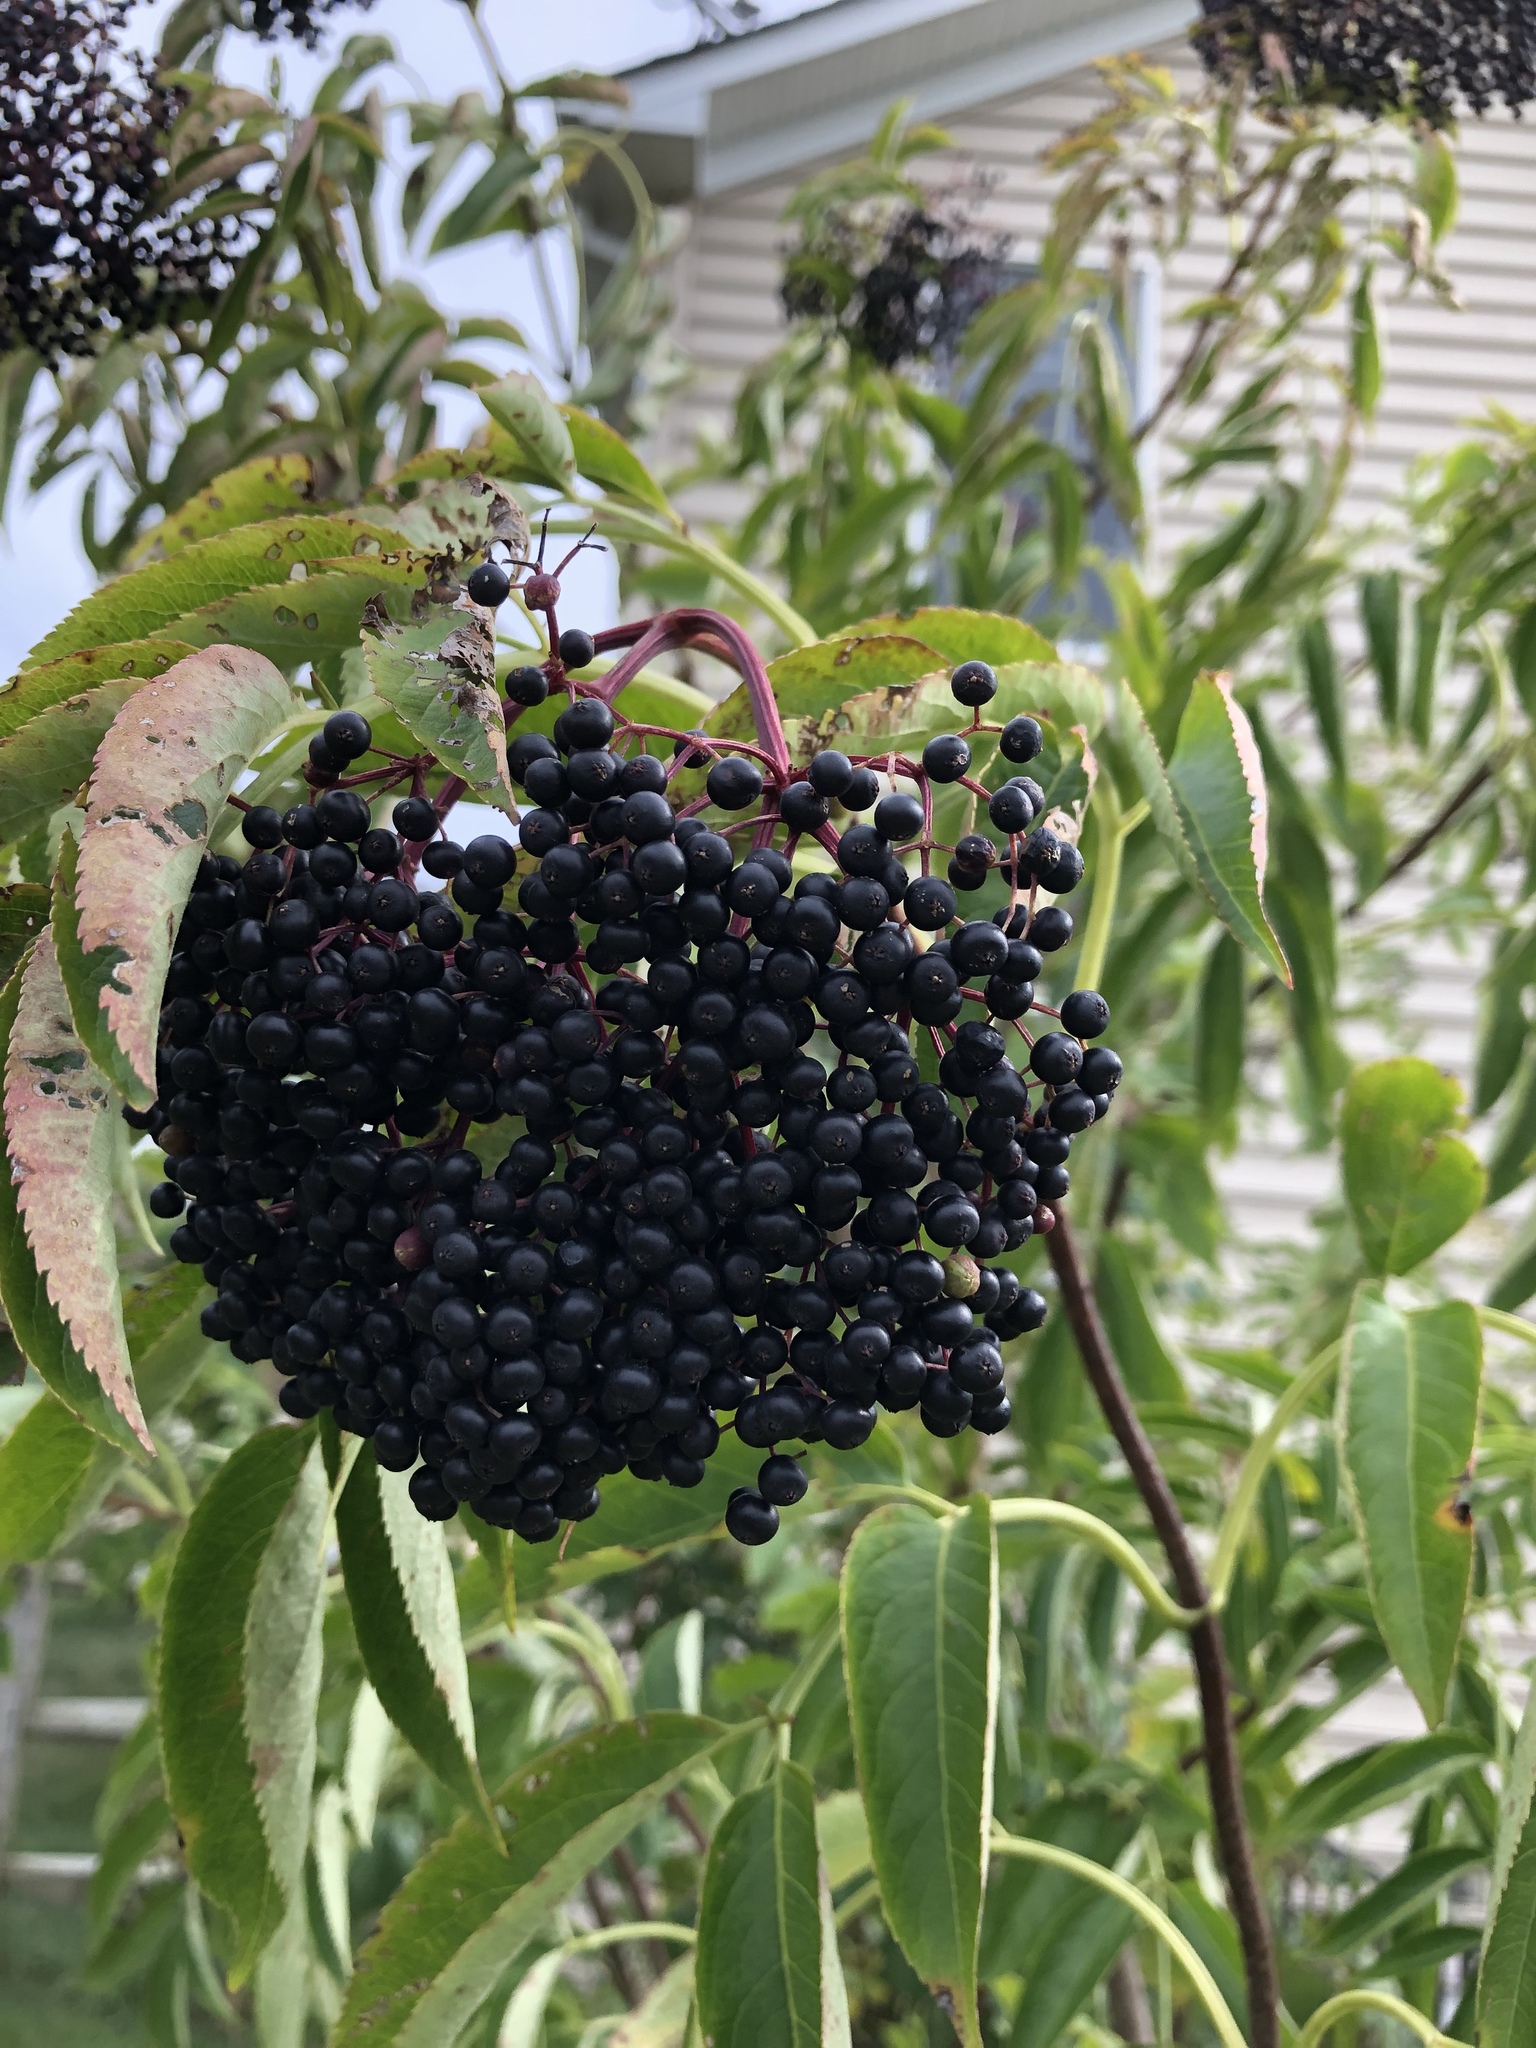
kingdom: Plantae
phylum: Tracheophyta
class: Magnoliopsida
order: Dipsacales
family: Viburnaceae
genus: Sambucus
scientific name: Sambucus canadensis
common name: American elder
